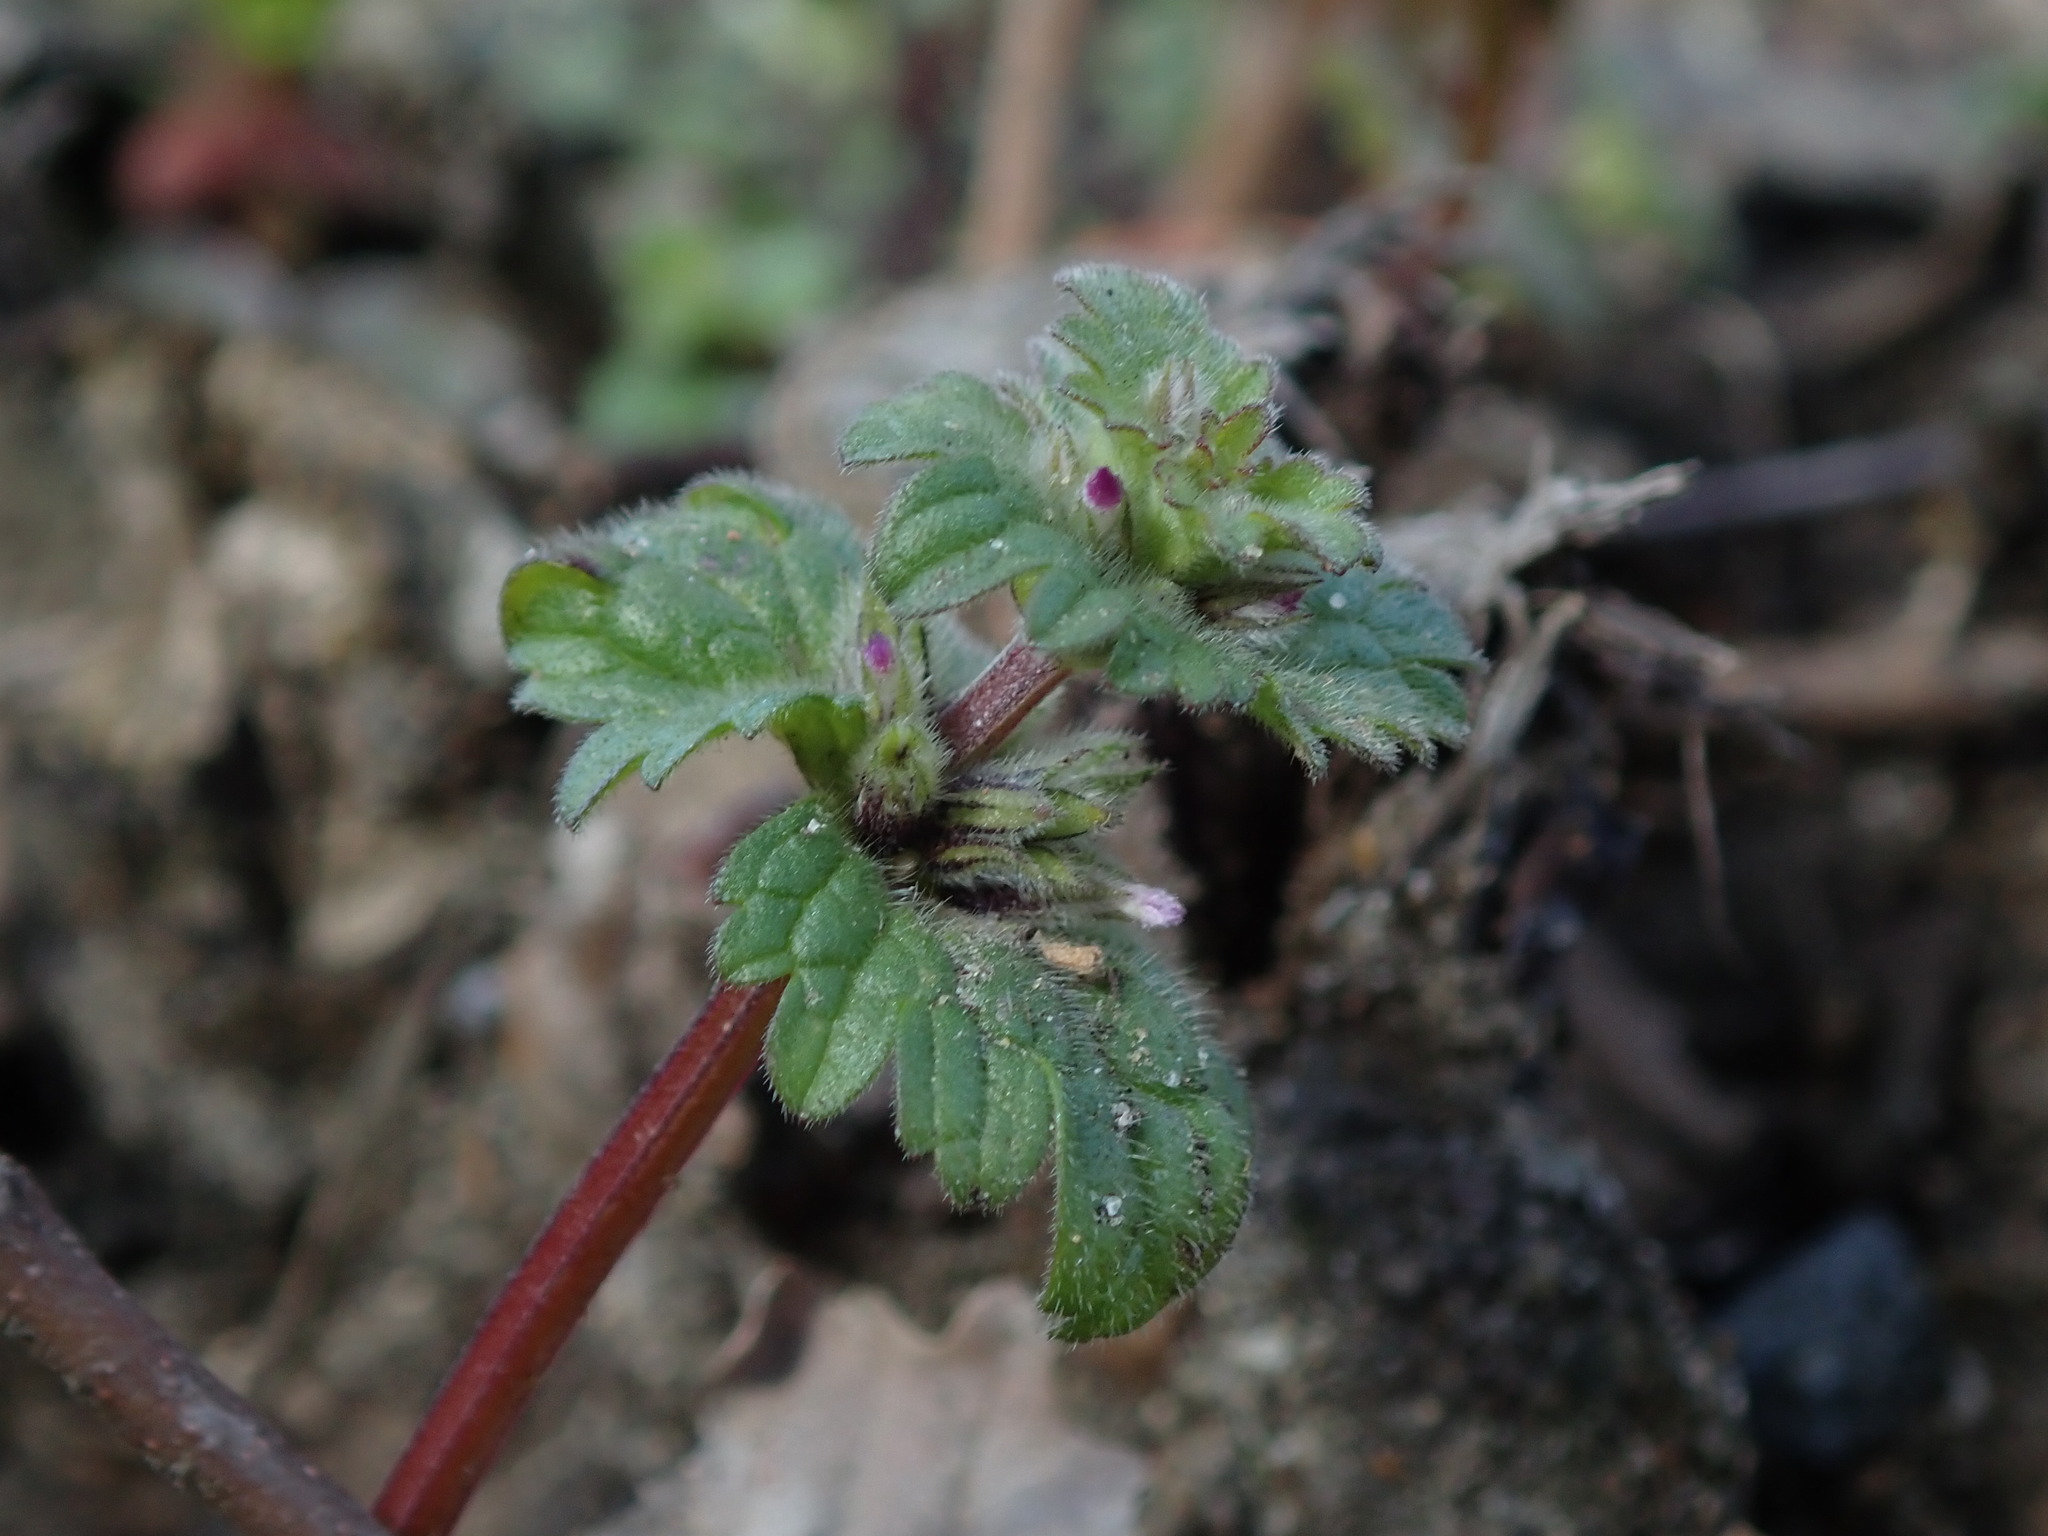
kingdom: Plantae
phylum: Tracheophyta
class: Magnoliopsida
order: Lamiales
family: Lamiaceae
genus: Lamium
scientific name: Lamium amplexicaule
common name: Henbit dead-nettle
